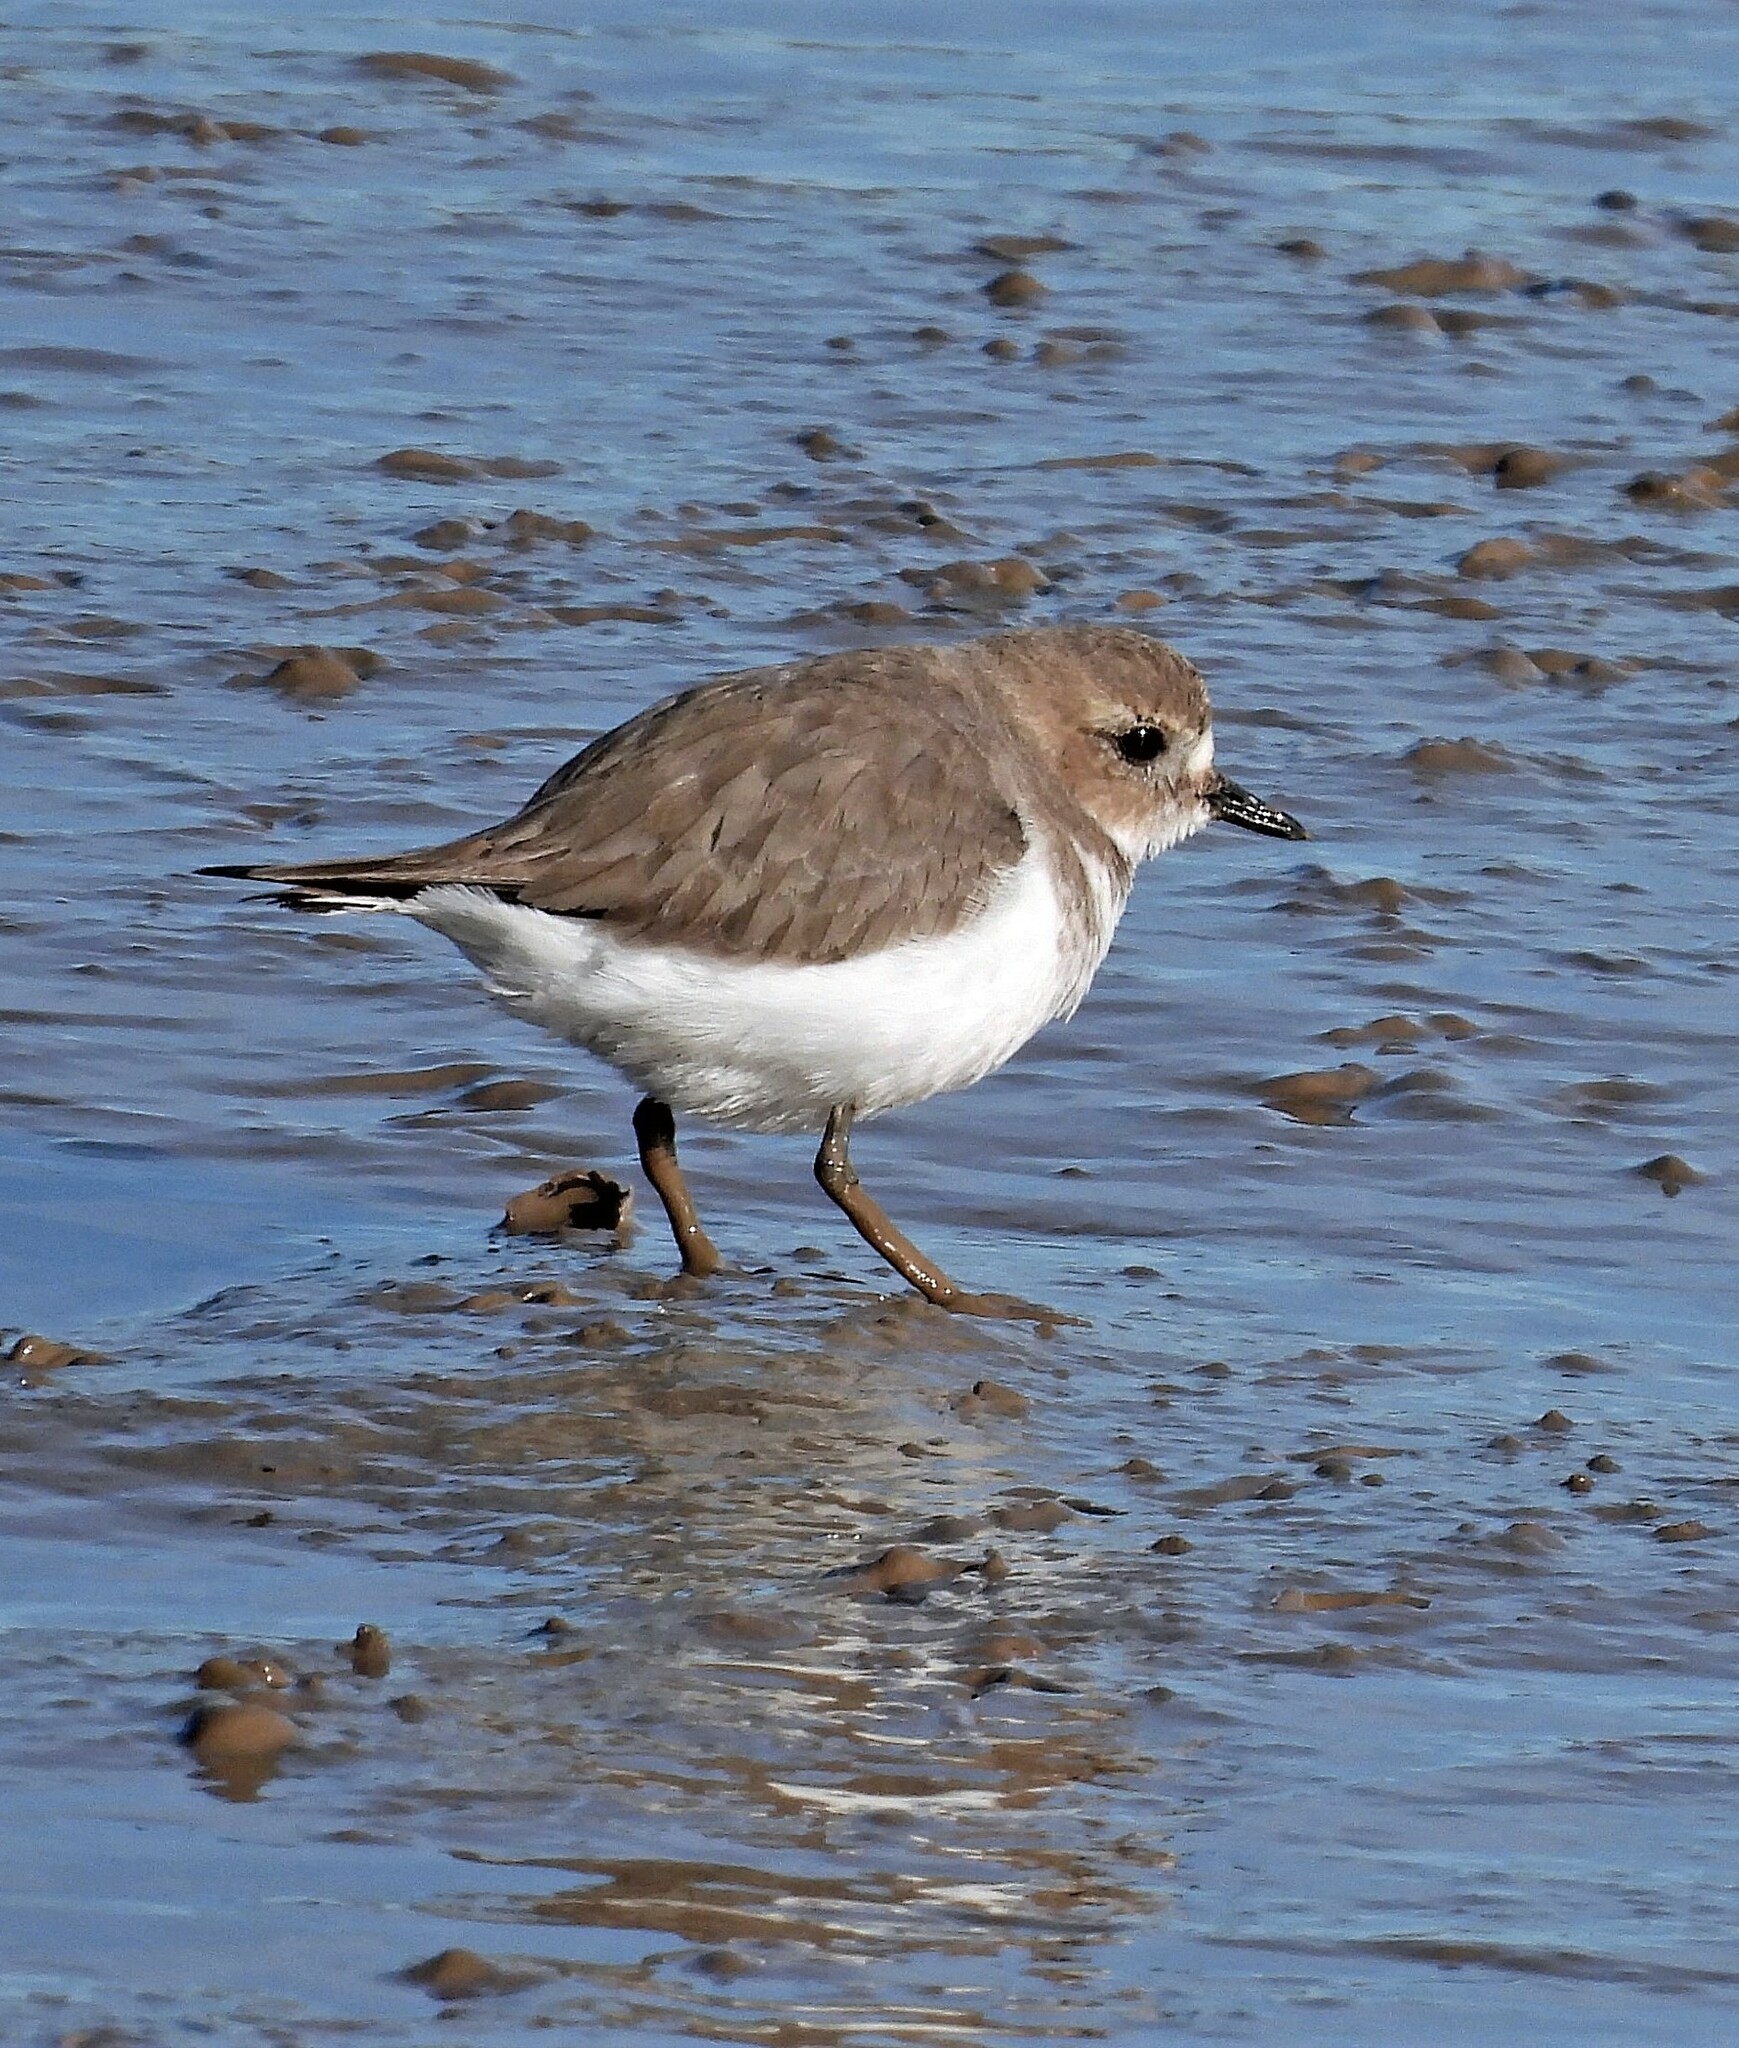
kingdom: Animalia
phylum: Chordata
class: Aves
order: Charadriiformes
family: Charadriidae
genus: Anarhynchus
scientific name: Anarhynchus
